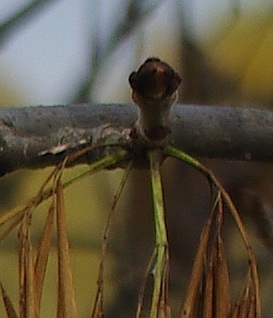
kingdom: Plantae
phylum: Tracheophyta
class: Magnoliopsida
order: Lamiales
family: Oleaceae
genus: Fraxinus
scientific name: Fraxinus pennsylvanica
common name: Green ash
